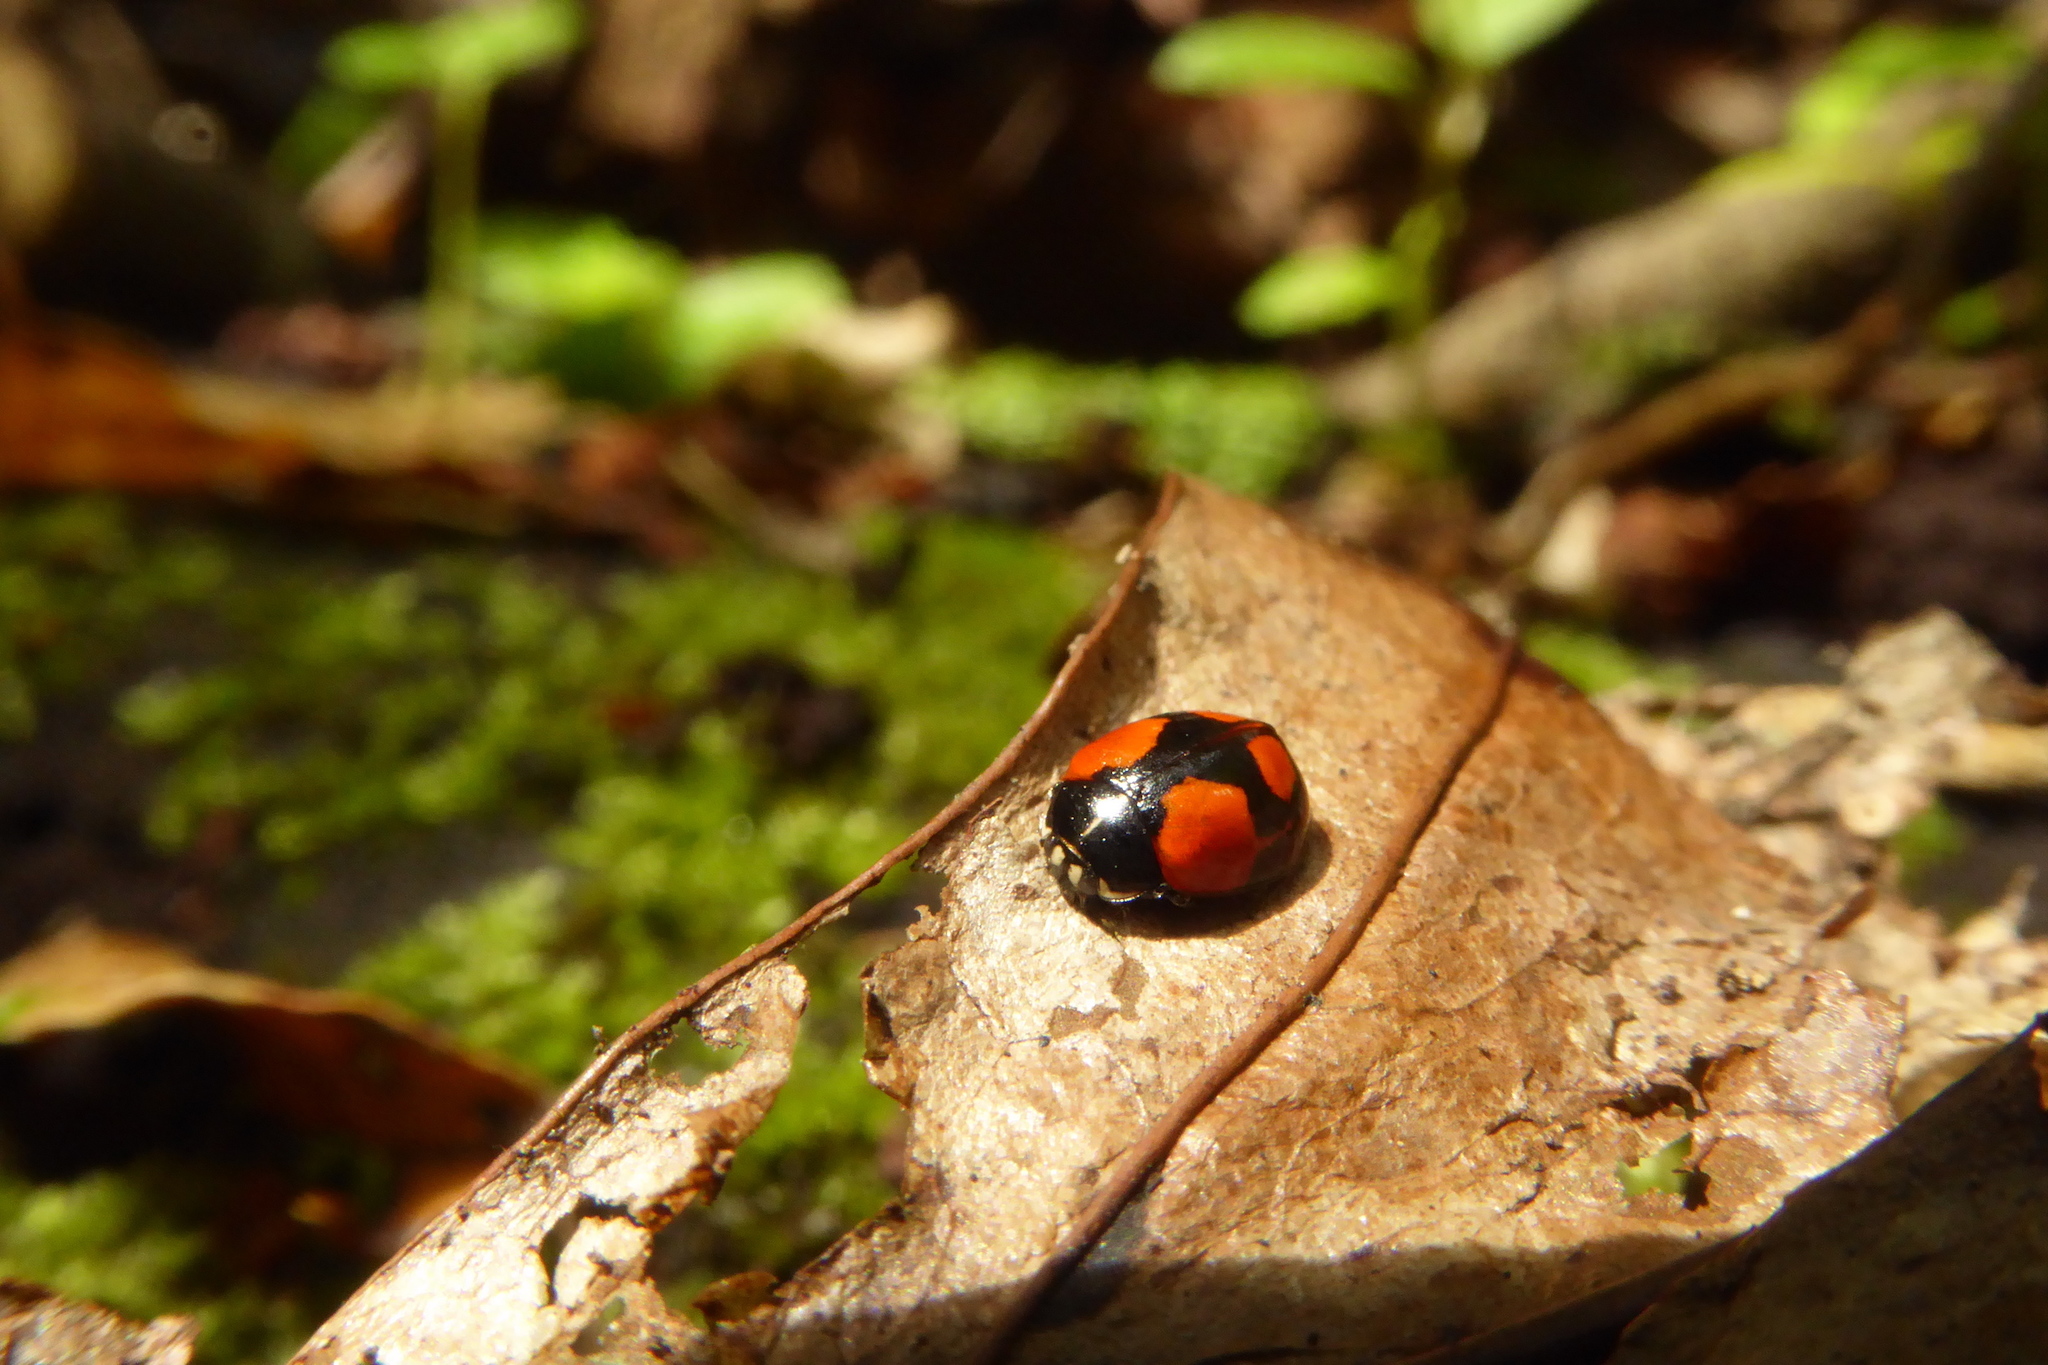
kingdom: Animalia
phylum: Arthropoda
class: Insecta
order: Coleoptera
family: Coccinellidae
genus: Adalia
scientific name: Adalia bipunctata
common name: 2-spot ladybird
